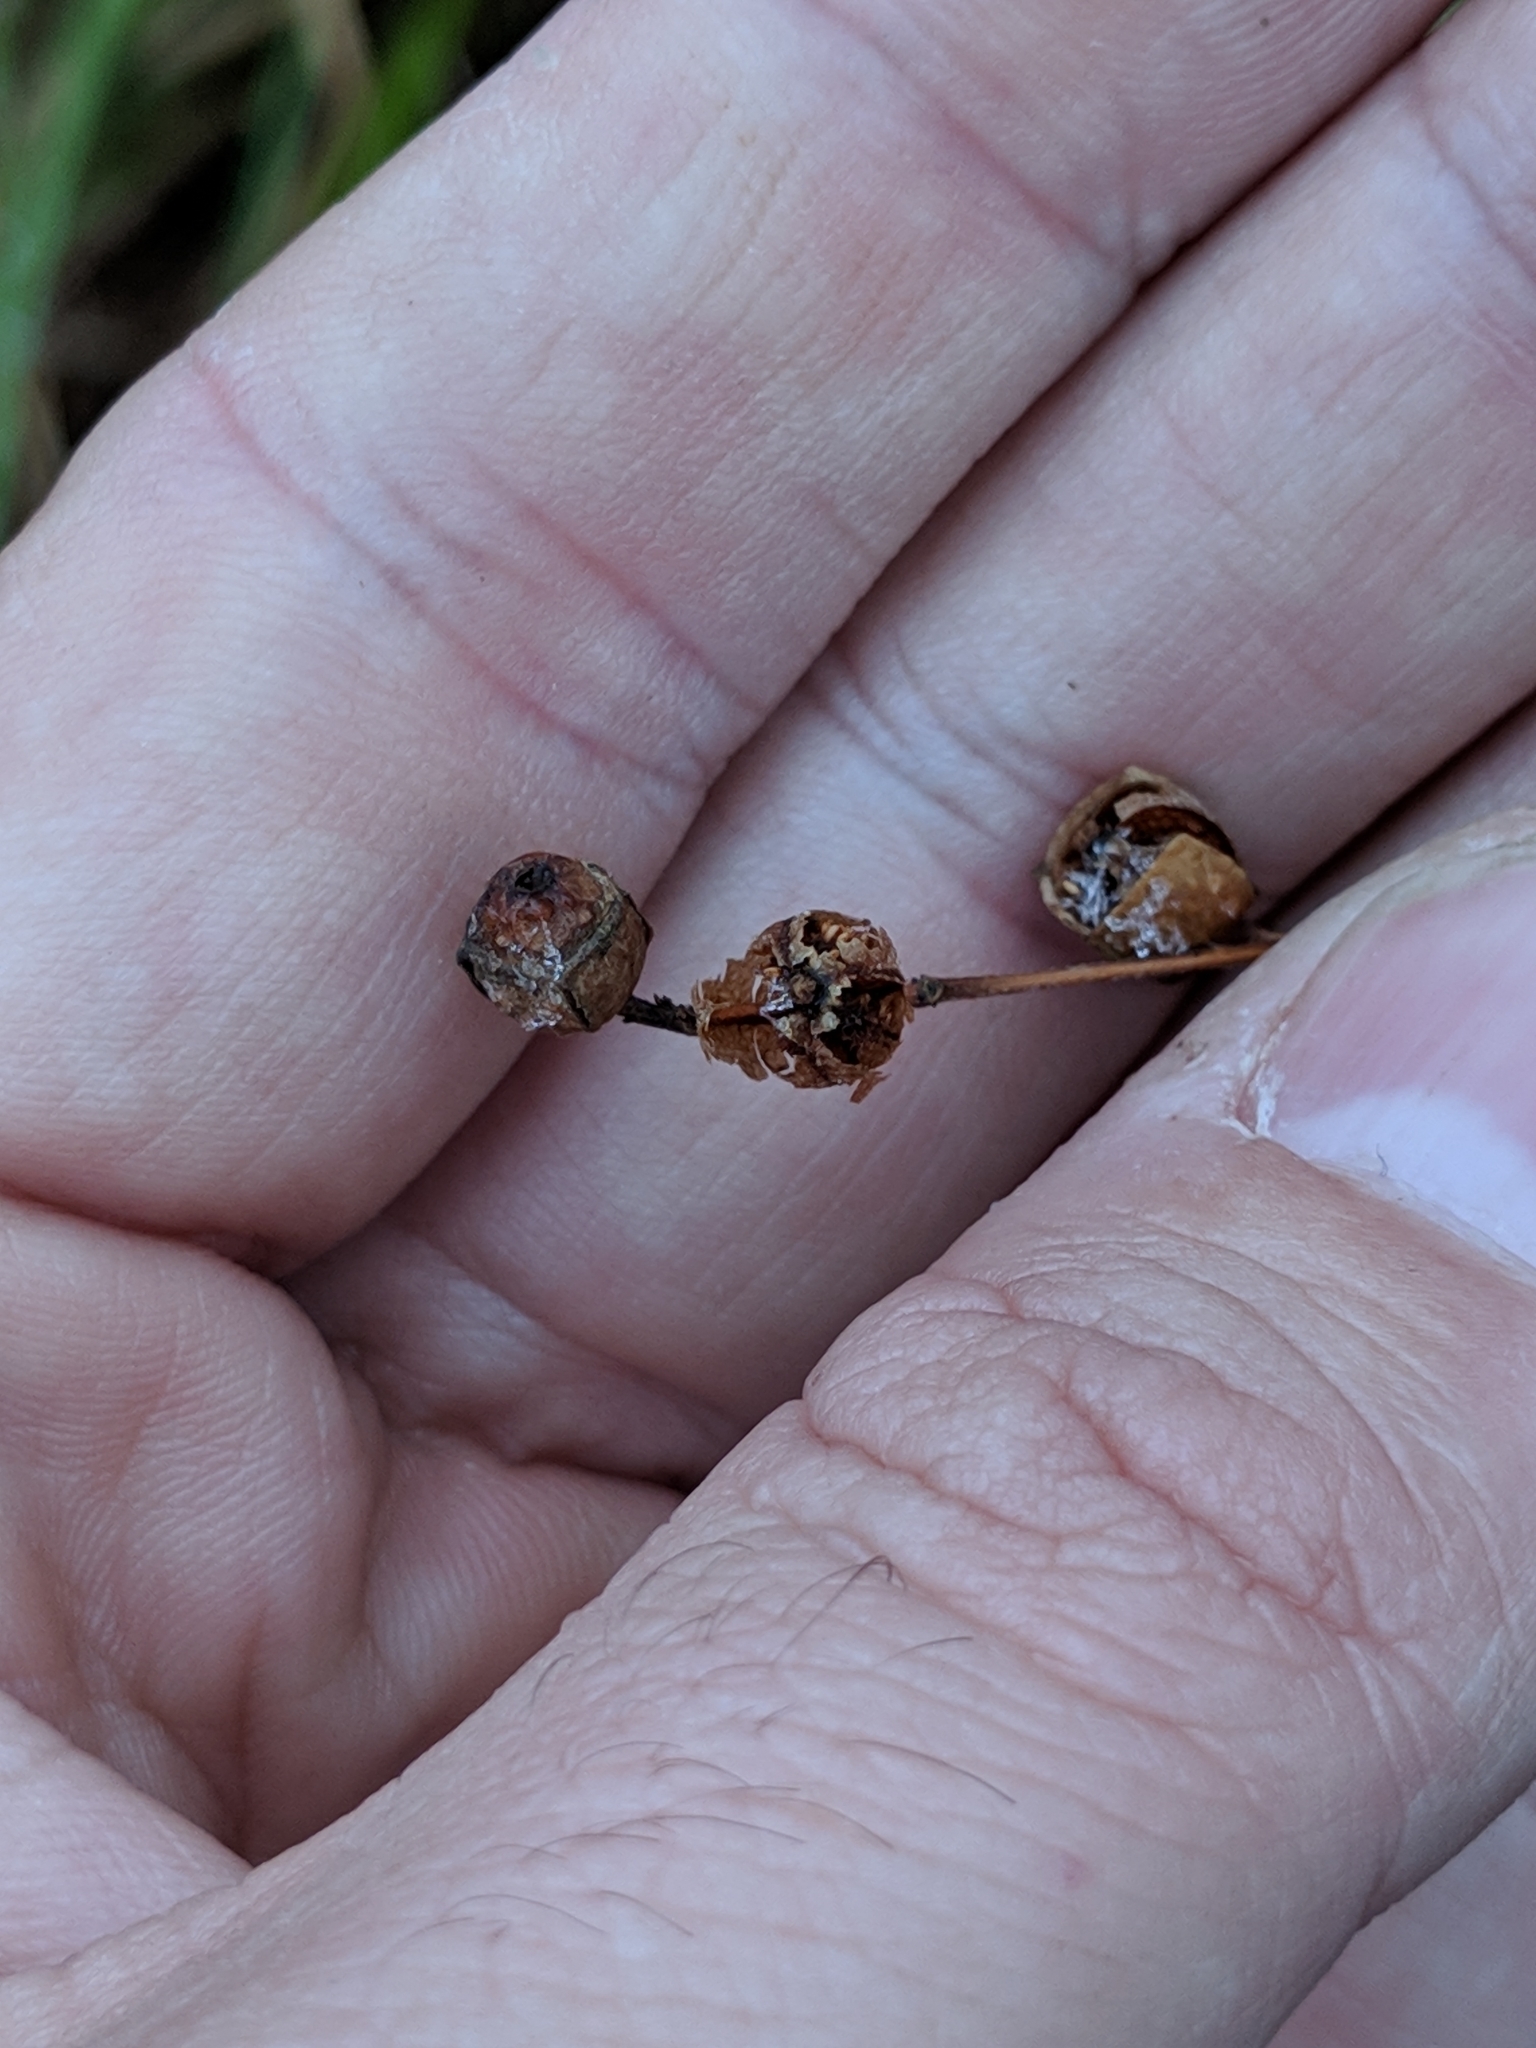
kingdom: Plantae
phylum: Tracheophyta
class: Magnoliopsida
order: Myrtales
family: Onagraceae
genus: Ludwigia
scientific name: Ludwigia alternifolia
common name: Rattlebox
